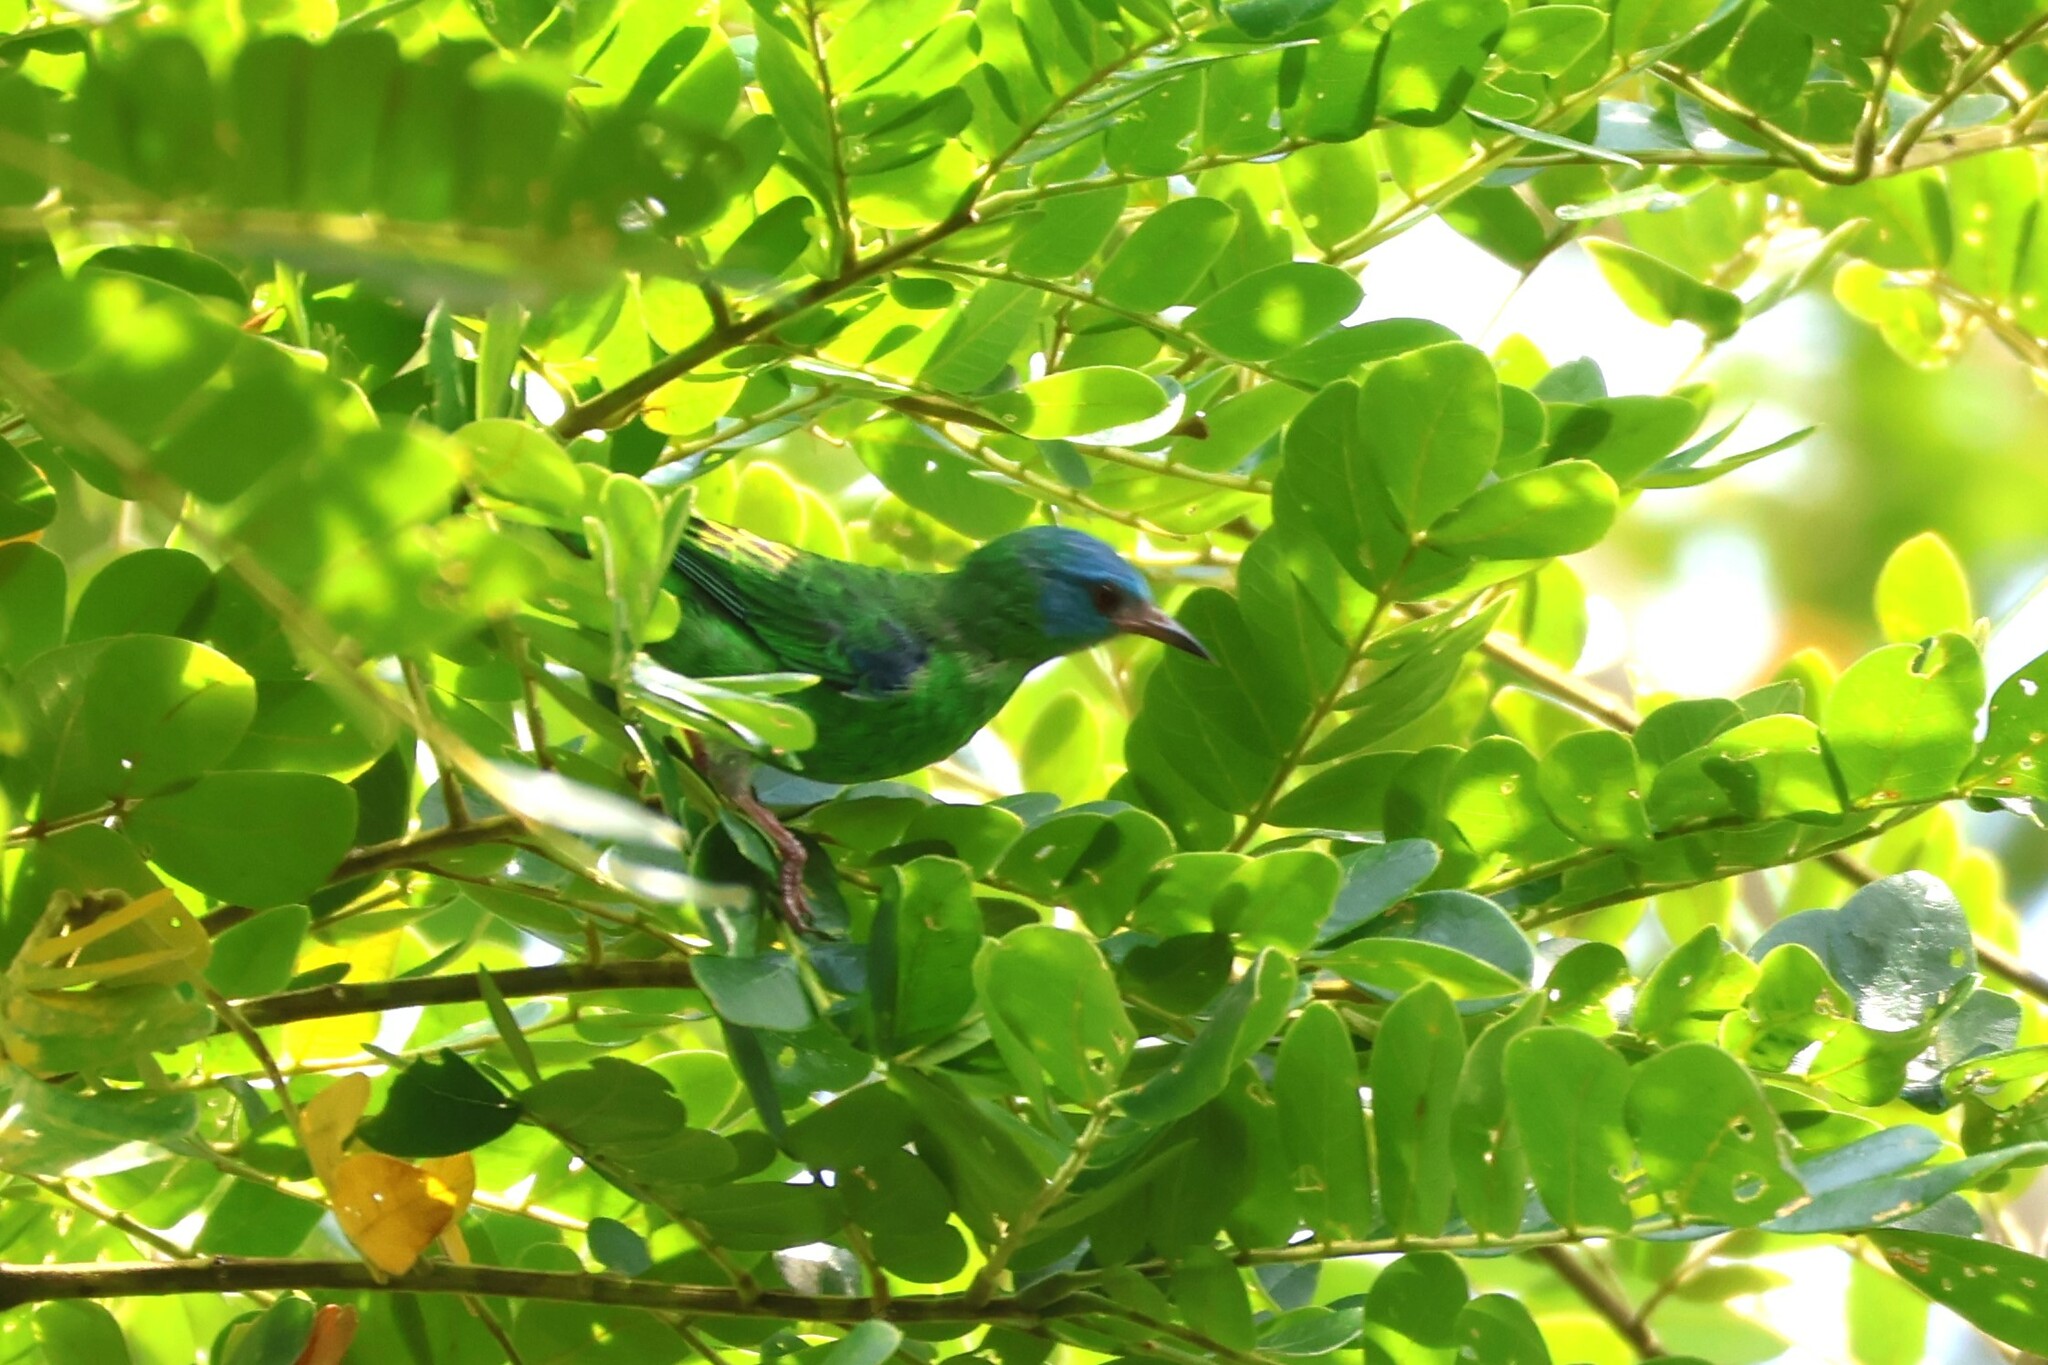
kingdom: Animalia
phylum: Chordata
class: Aves
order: Passeriformes
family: Thraupidae
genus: Dacnis
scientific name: Dacnis cayana
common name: Blue dacnis
